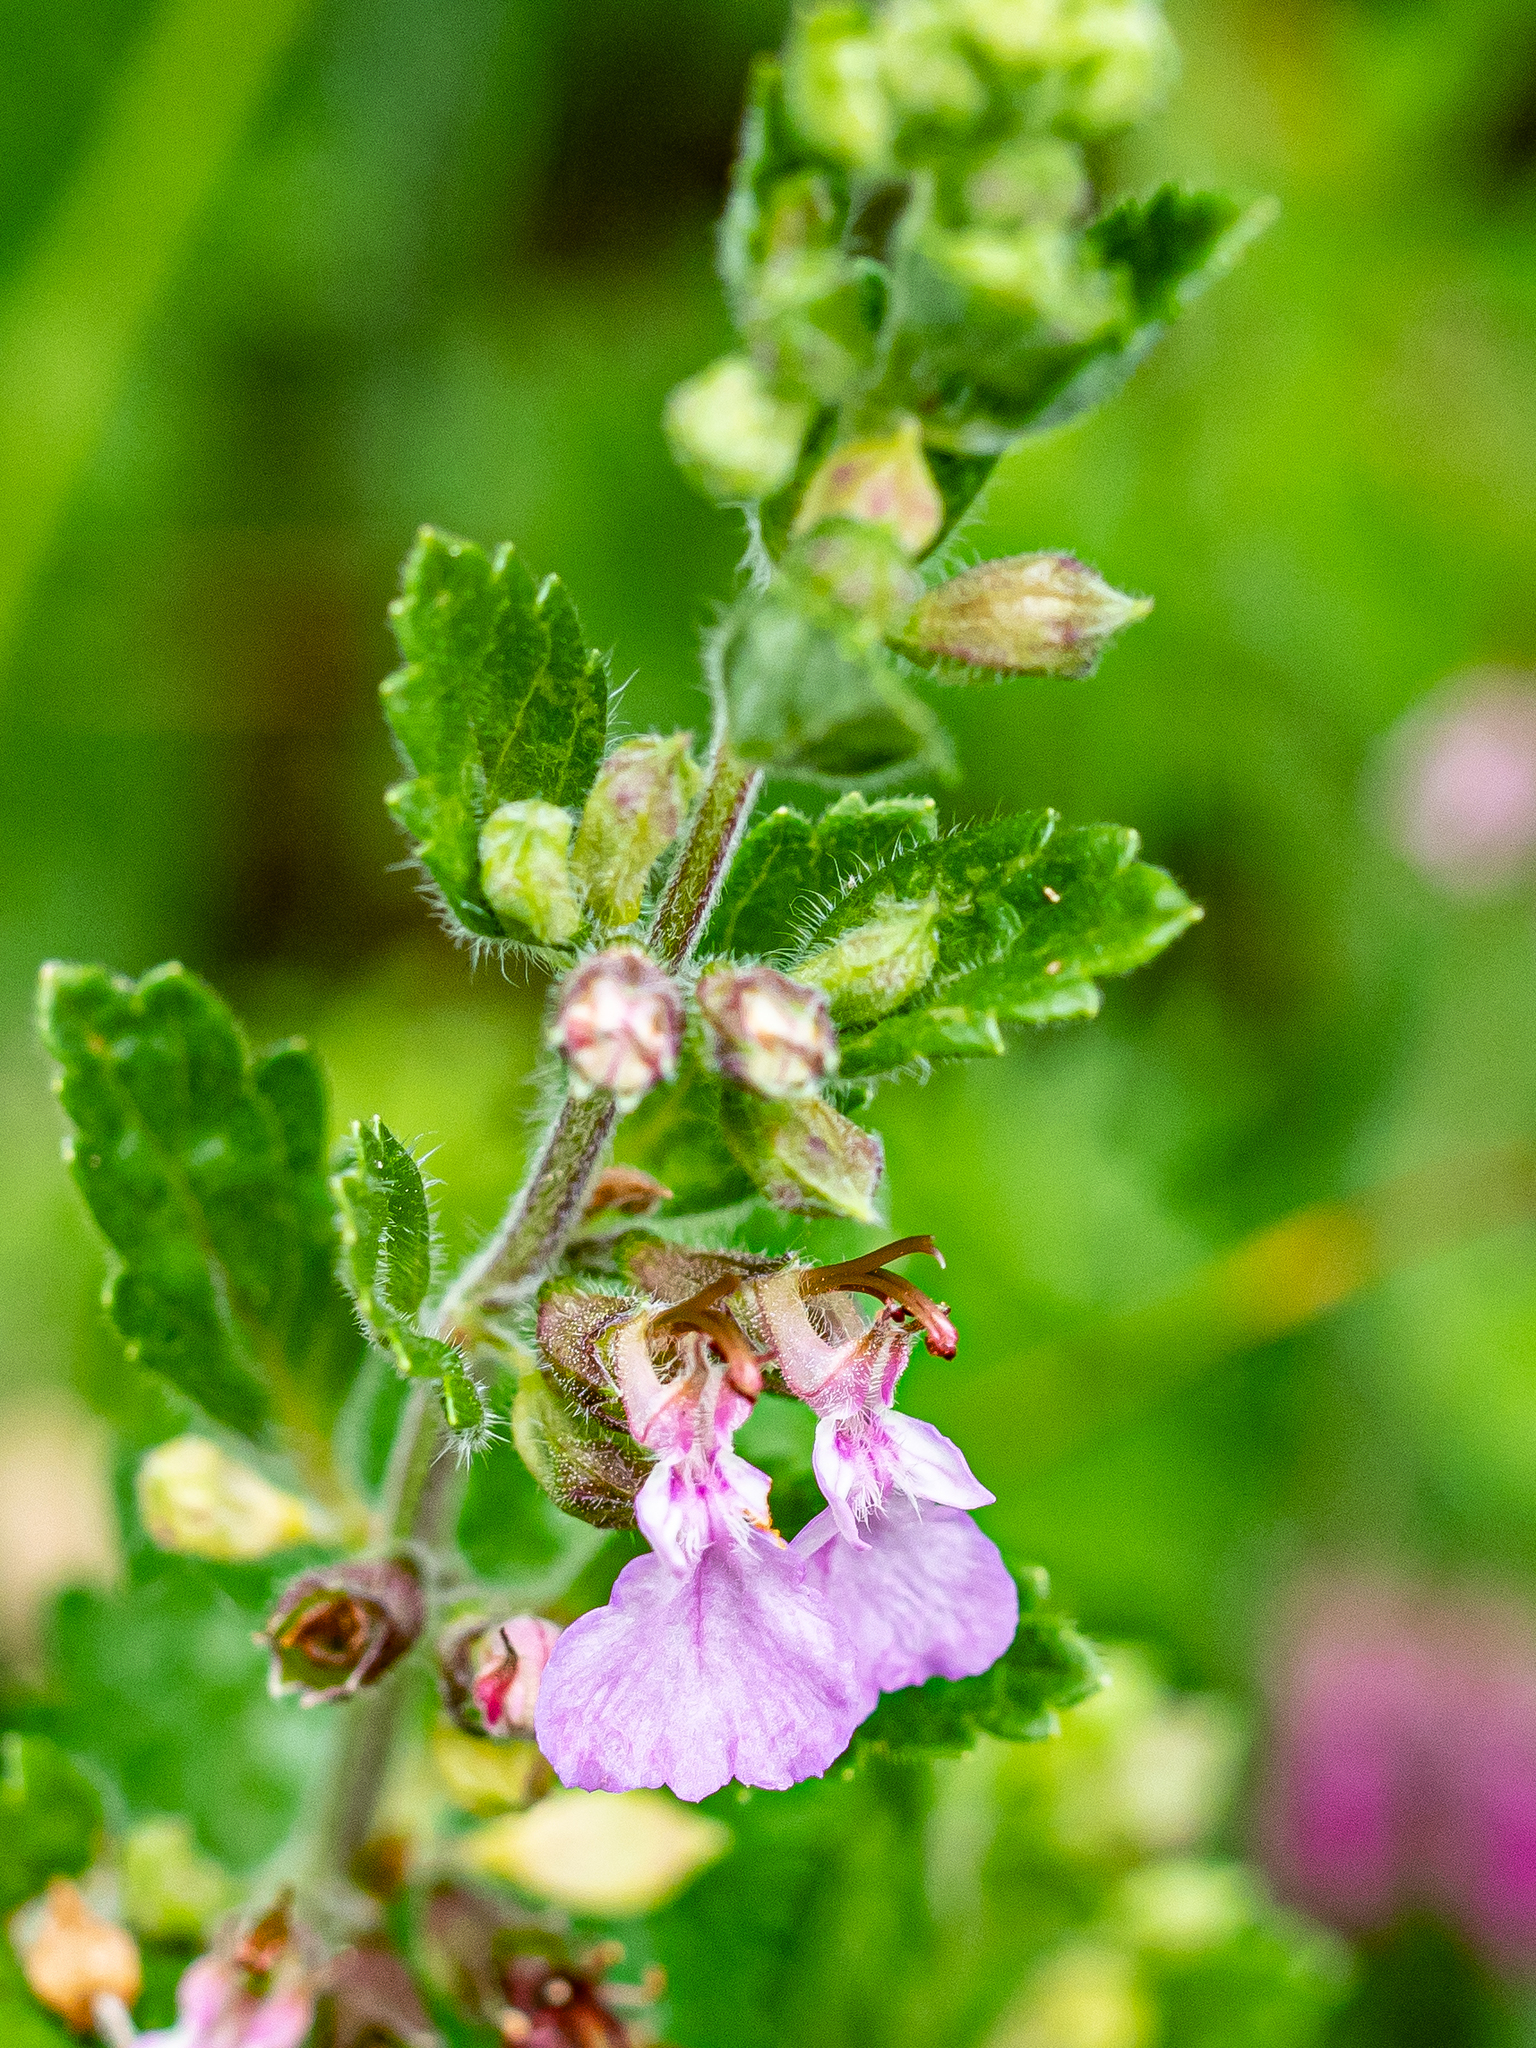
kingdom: Plantae
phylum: Tracheophyta
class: Magnoliopsida
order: Lamiales
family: Lamiaceae
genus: Teucrium
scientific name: Teucrium chamaedrys
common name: Wall germander
